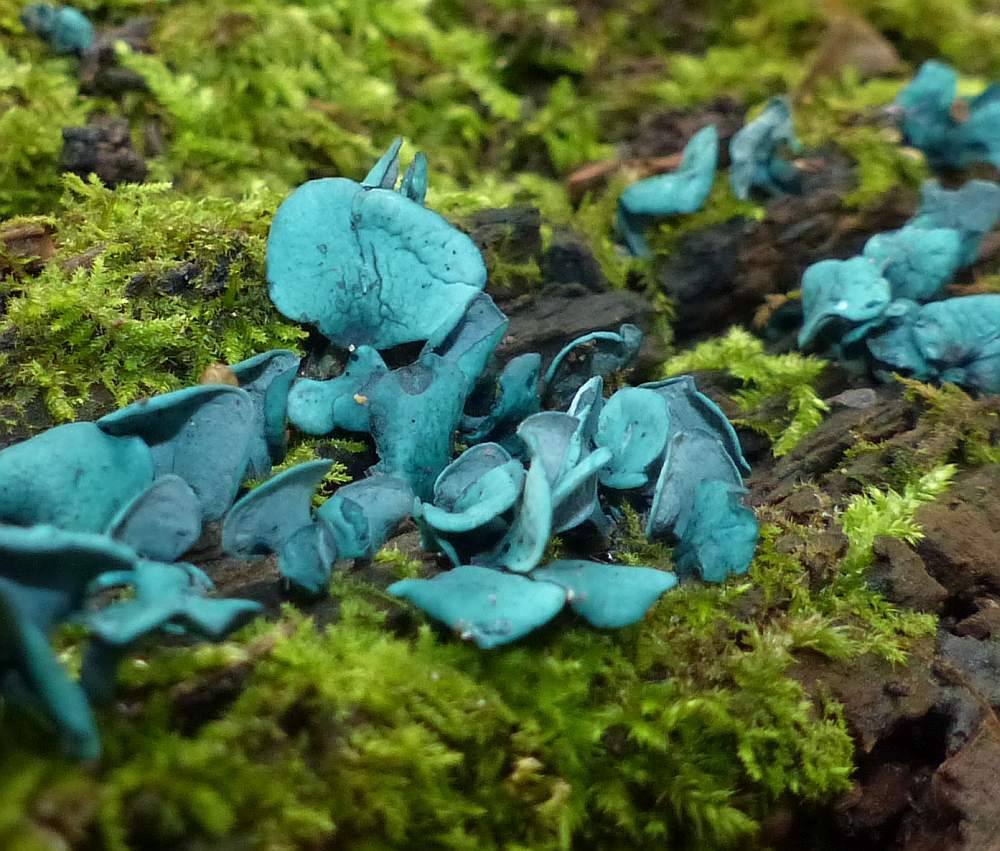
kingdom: Fungi
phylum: Ascomycota
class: Leotiomycetes
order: Helotiales
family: Chlorociboriaceae
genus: Chlorociboria
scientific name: Chlorociboria aeruginascens
